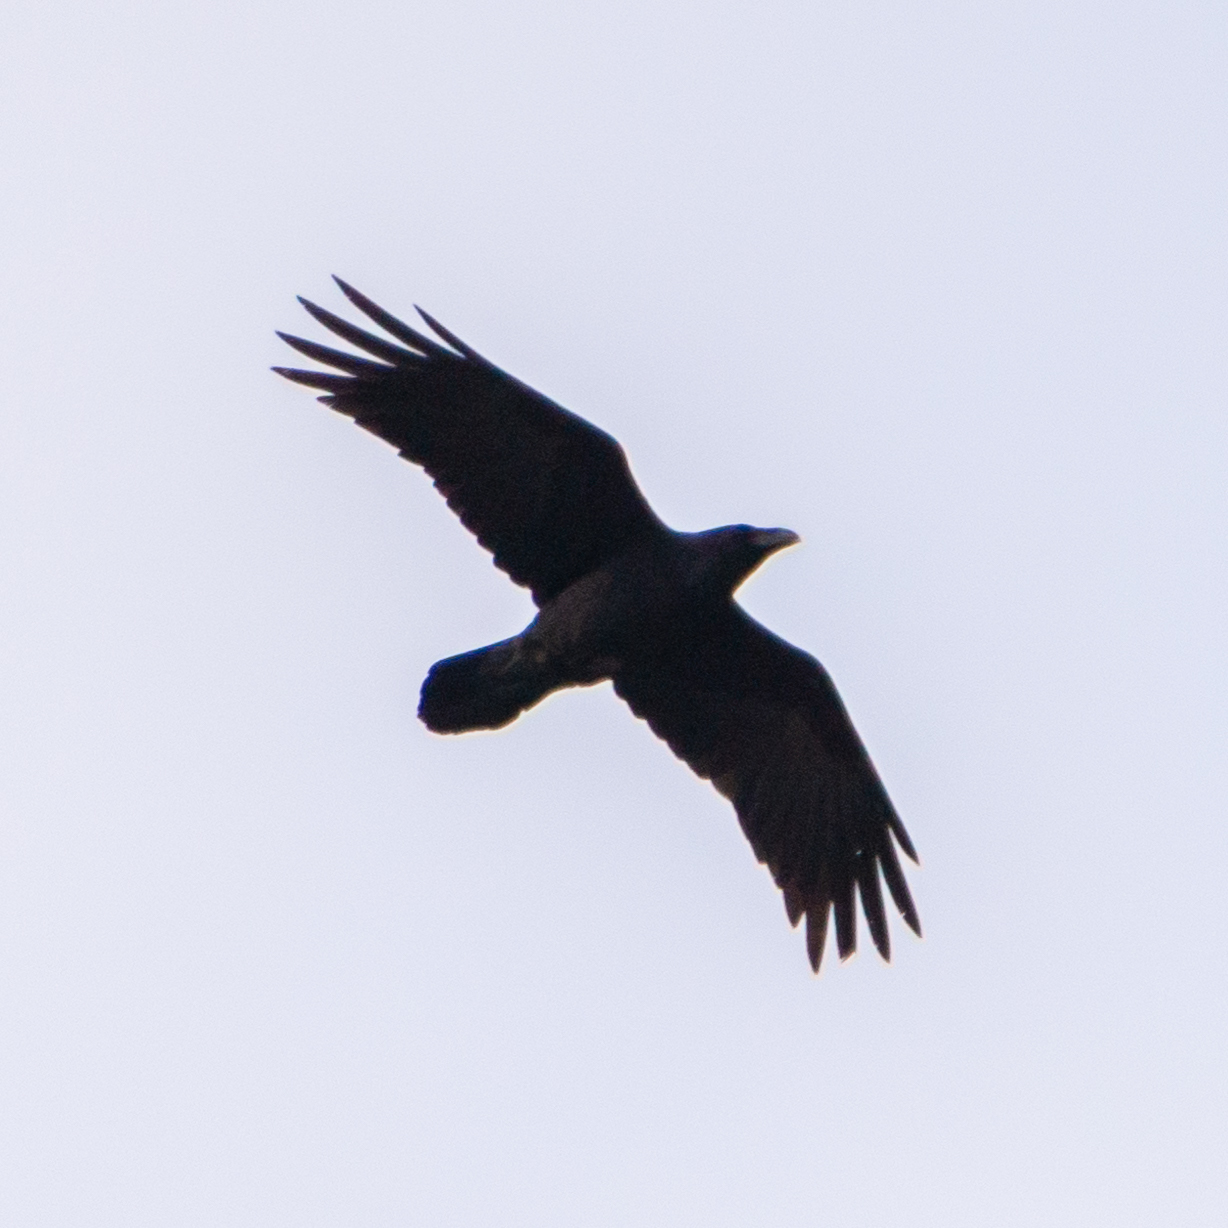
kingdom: Animalia
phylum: Chordata
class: Aves
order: Passeriformes
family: Corvidae
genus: Corvus
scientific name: Corvus corax
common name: Common raven
